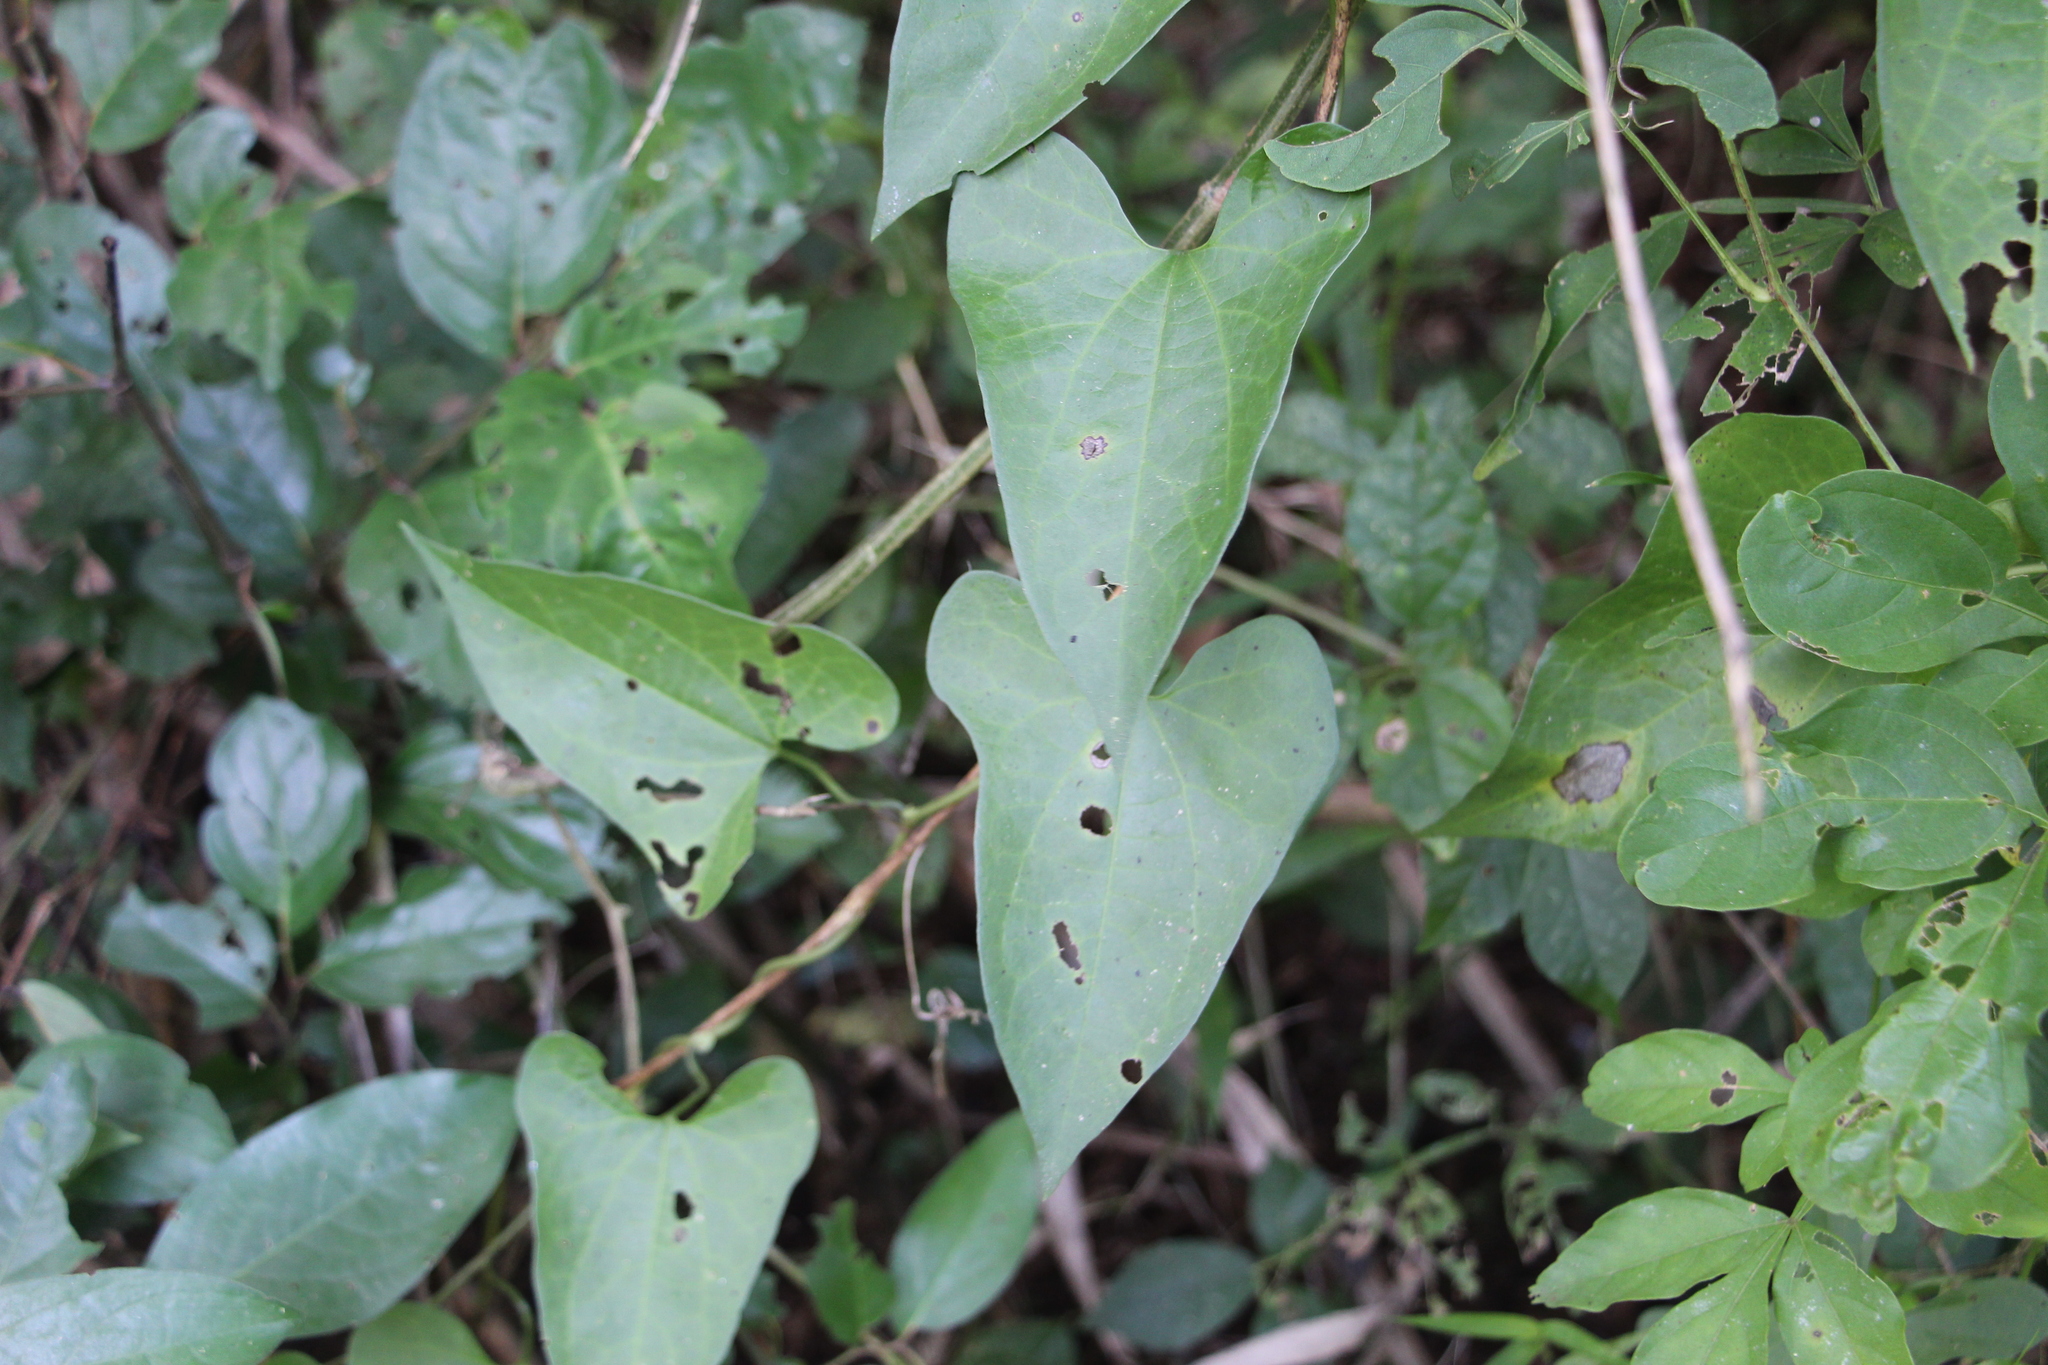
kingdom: Plantae
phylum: Tracheophyta
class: Magnoliopsida
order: Piperales
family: Aristolochiaceae
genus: Aristolochia
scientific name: Aristolochia odoratissima
